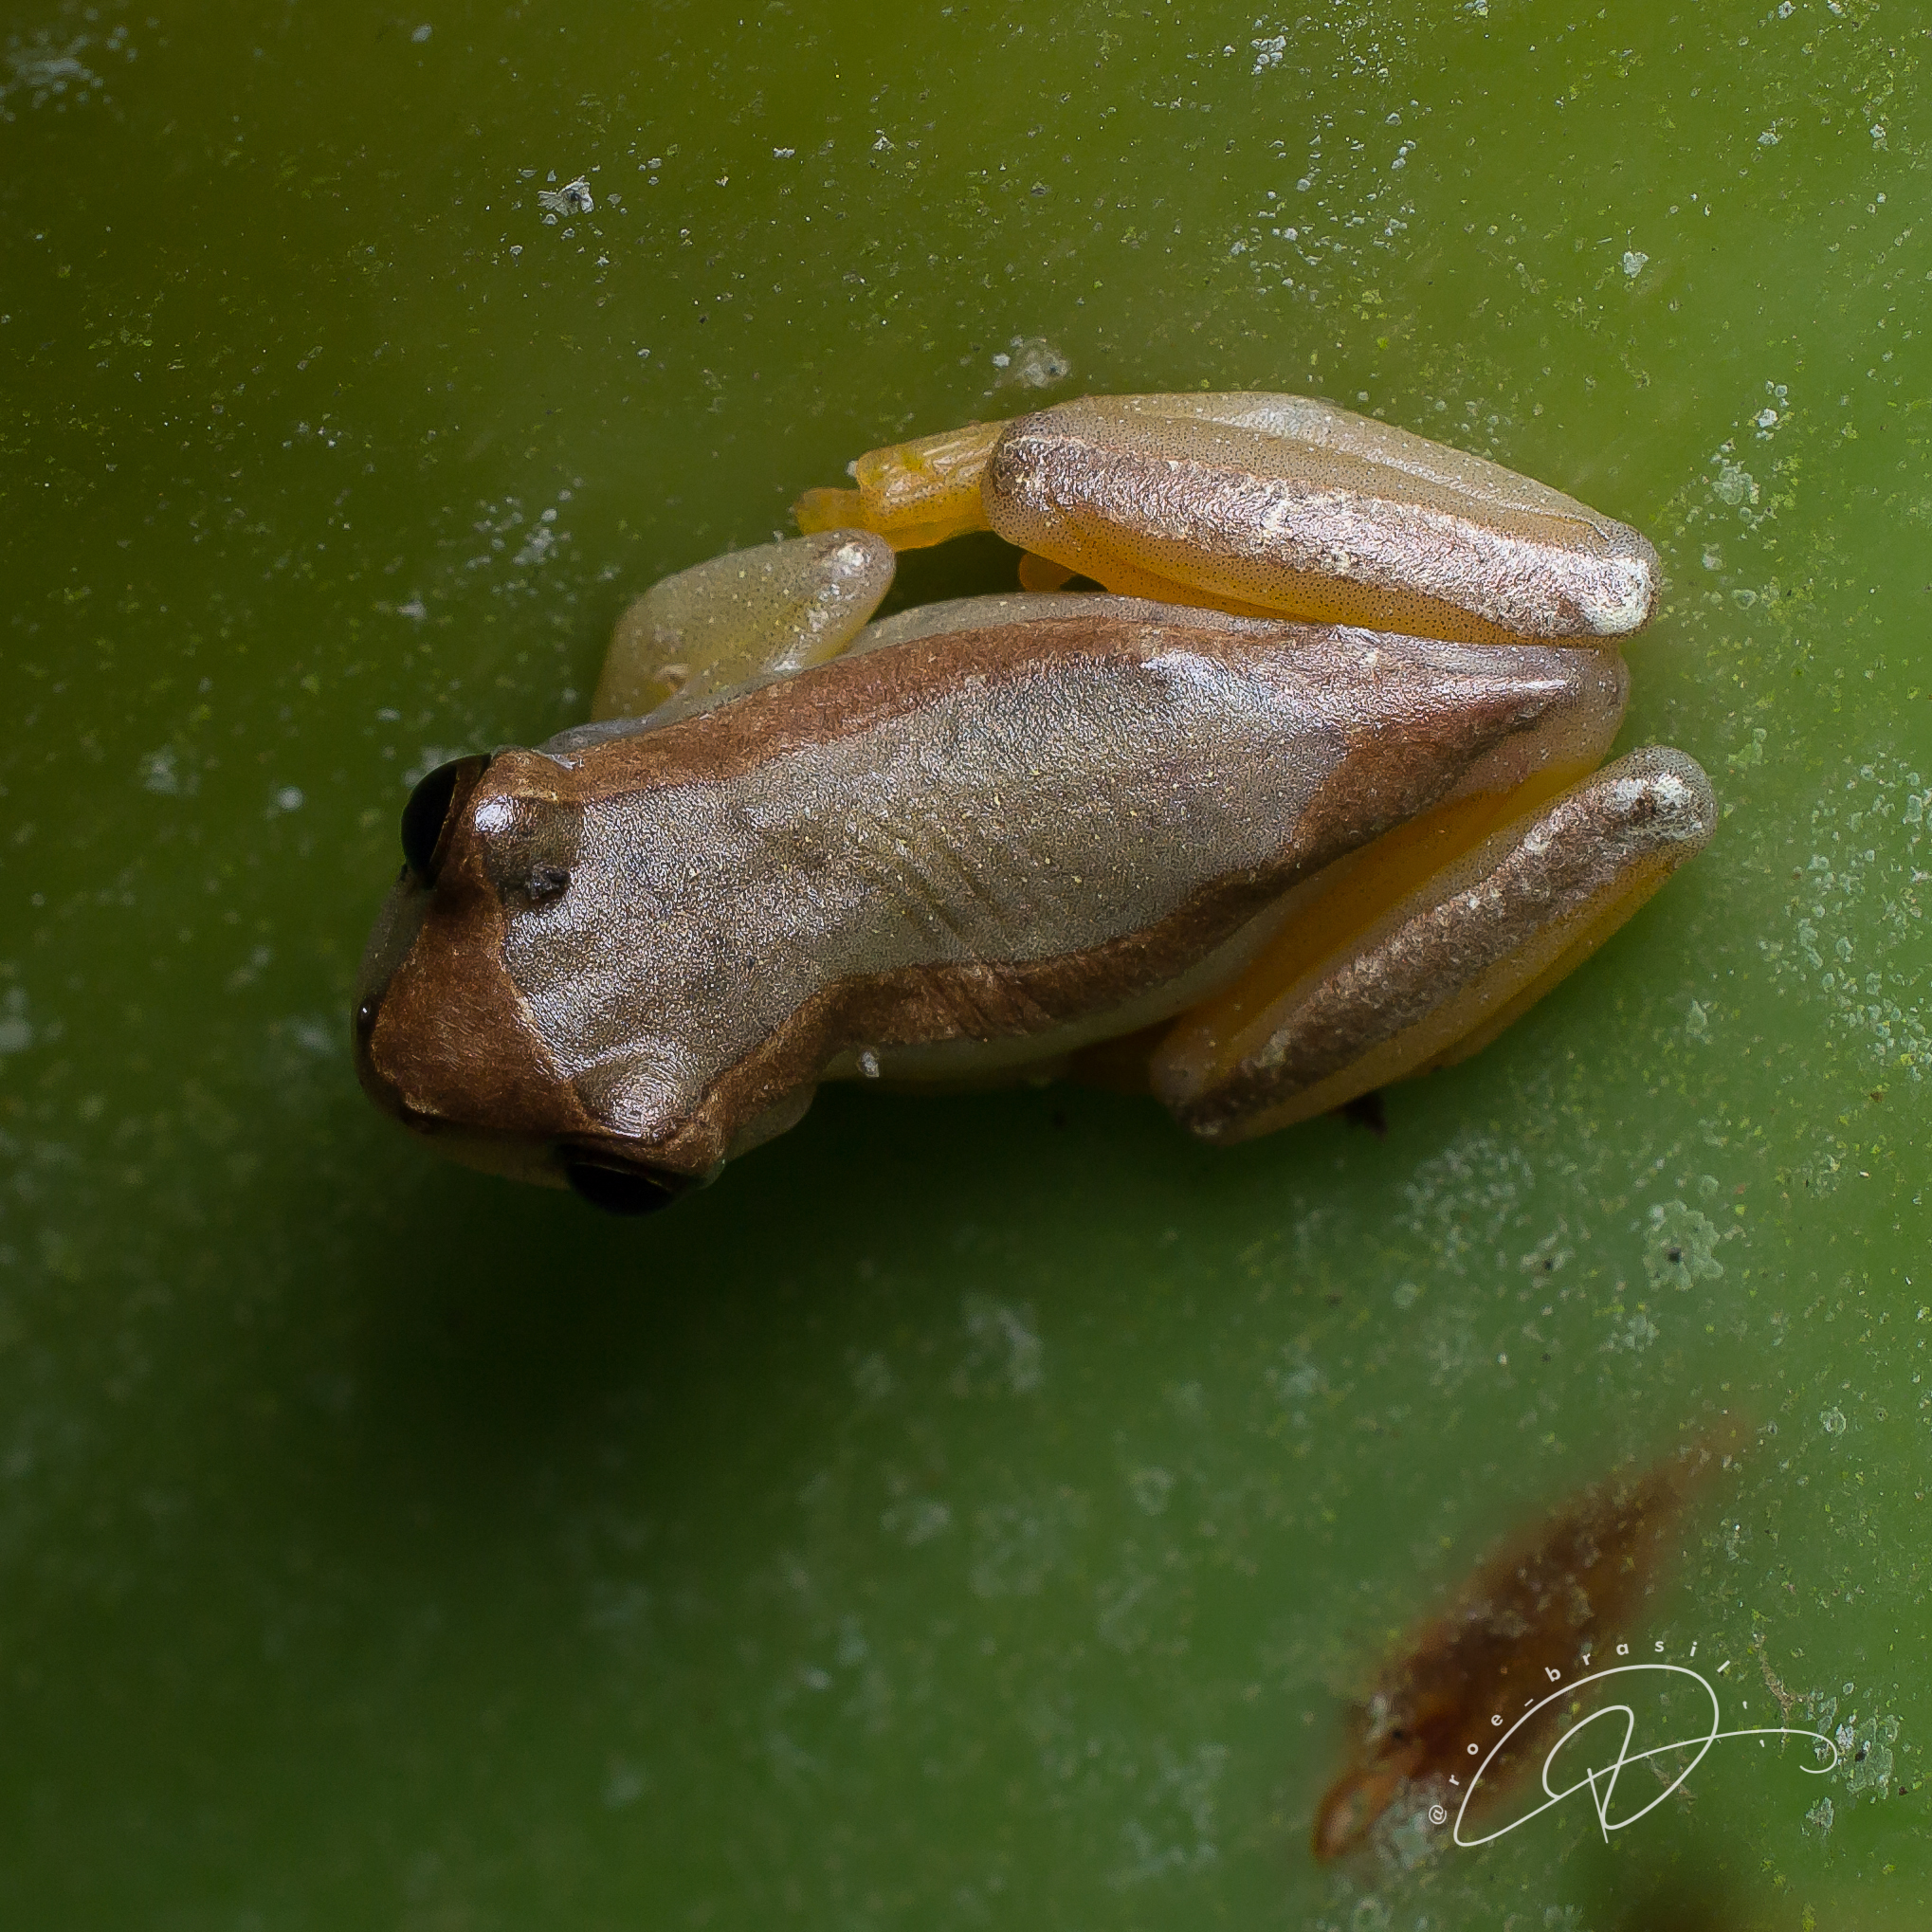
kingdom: Animalia
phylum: Chordata
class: Amphibia
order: Anura
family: Hylidae
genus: Dendropsophus
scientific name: Dendropsophus elegans
